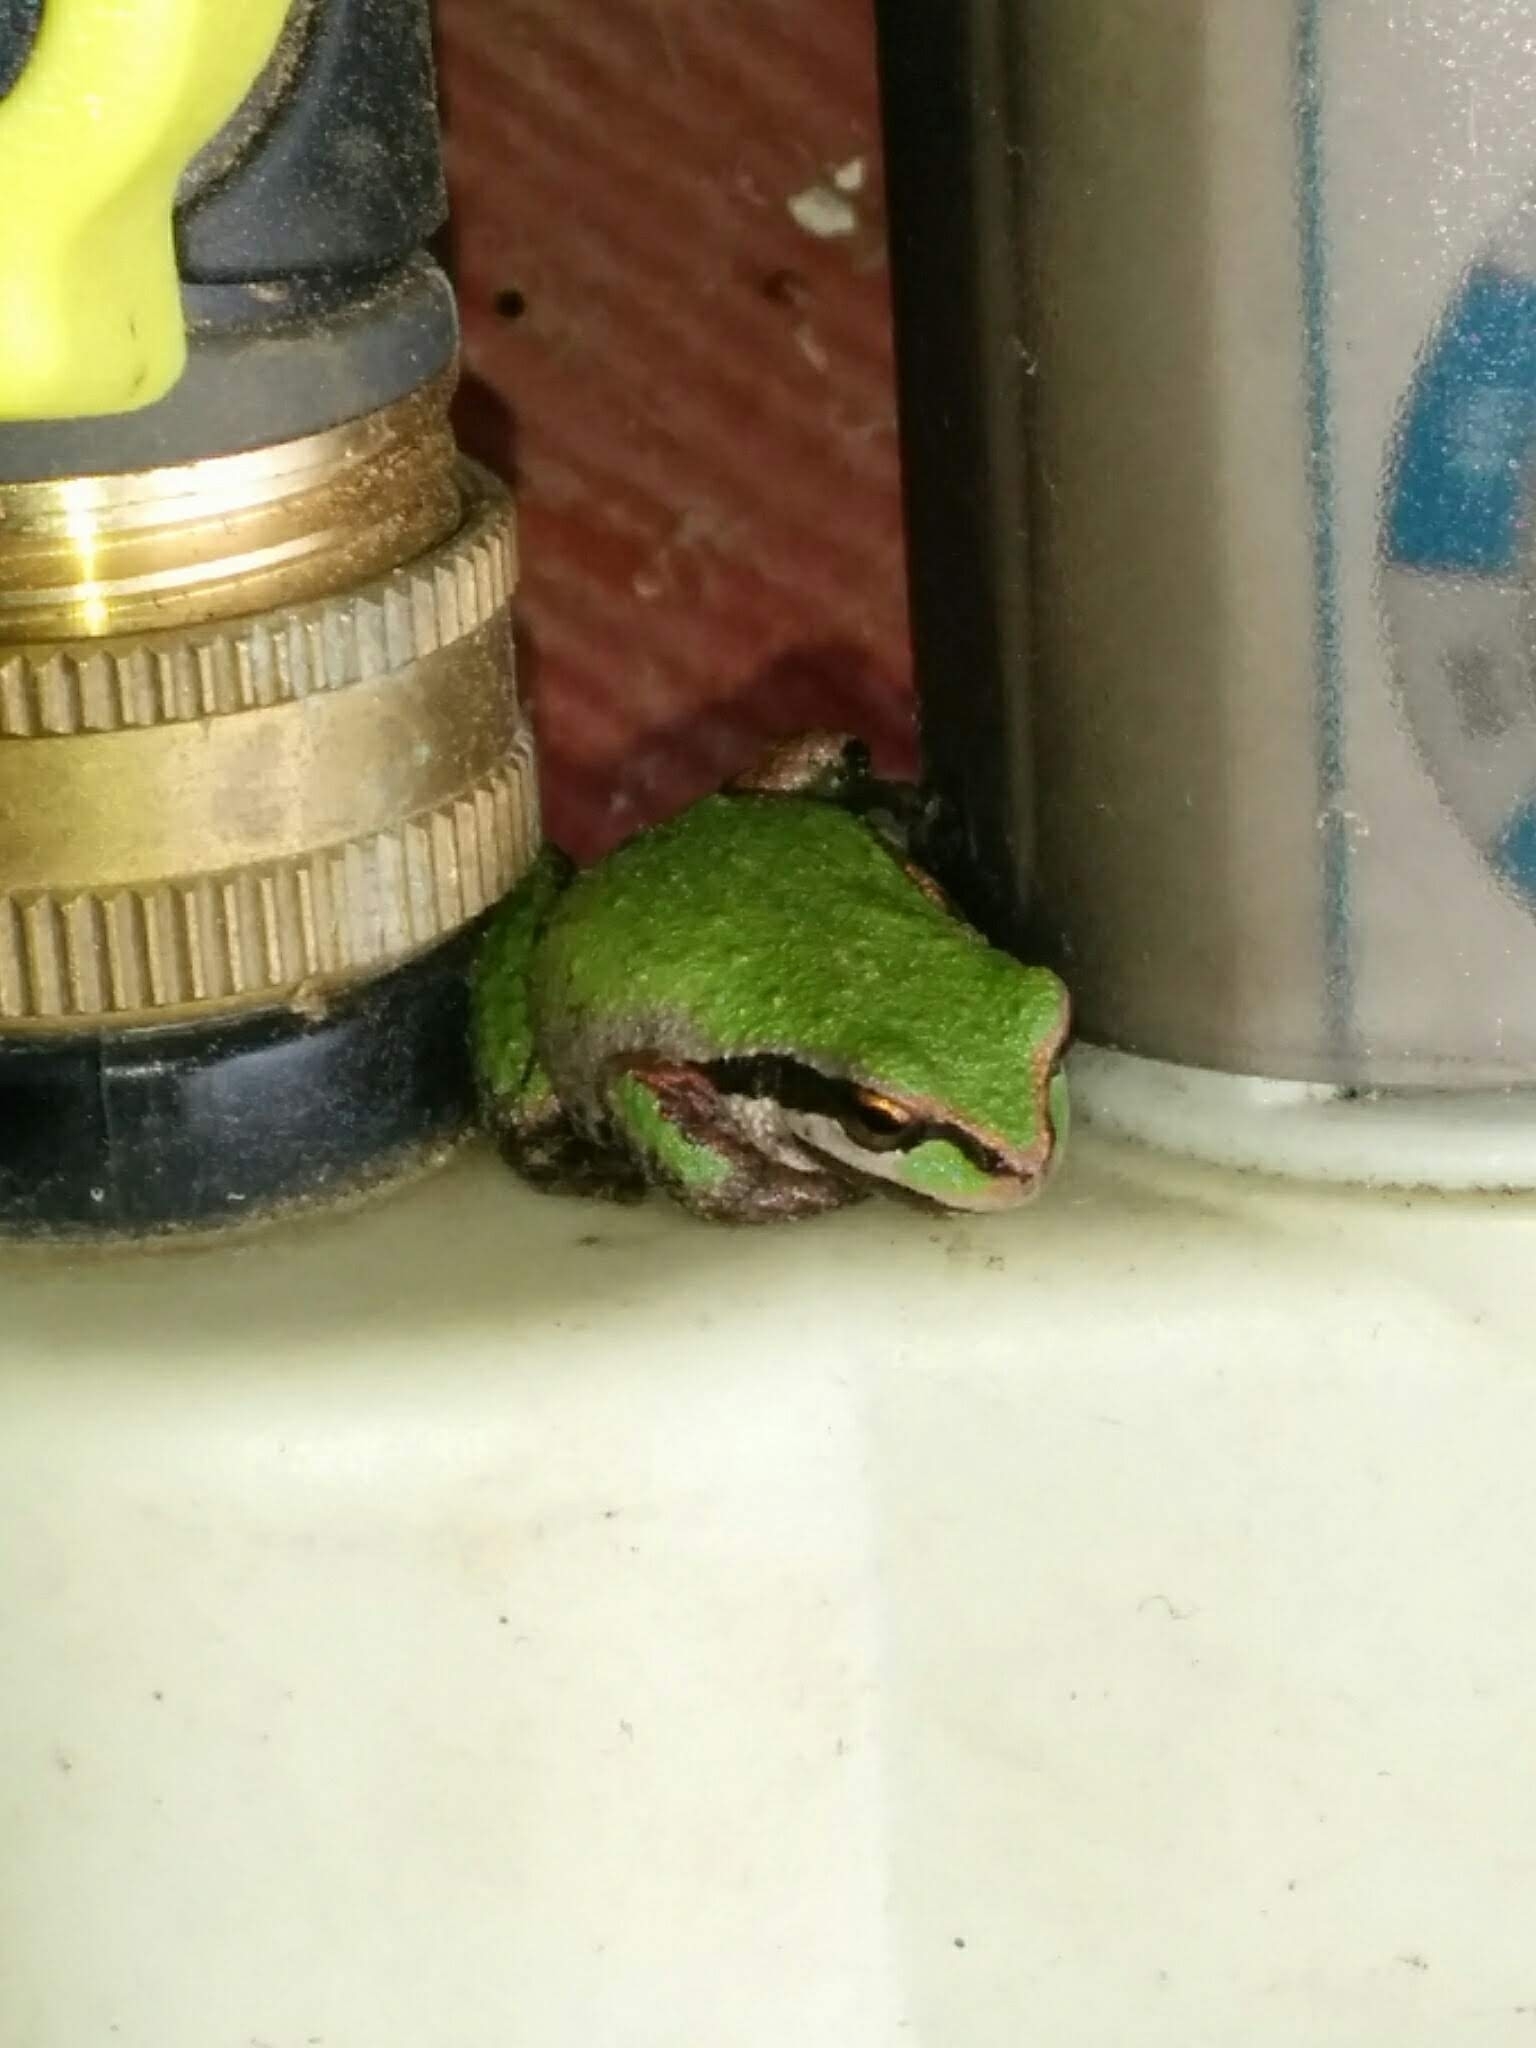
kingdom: Animalia
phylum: Chordata
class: Amphibia
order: Anura
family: Hylidae
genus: Pseudacris
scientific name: Pseudacris regilla
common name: Pacific chorus frog
